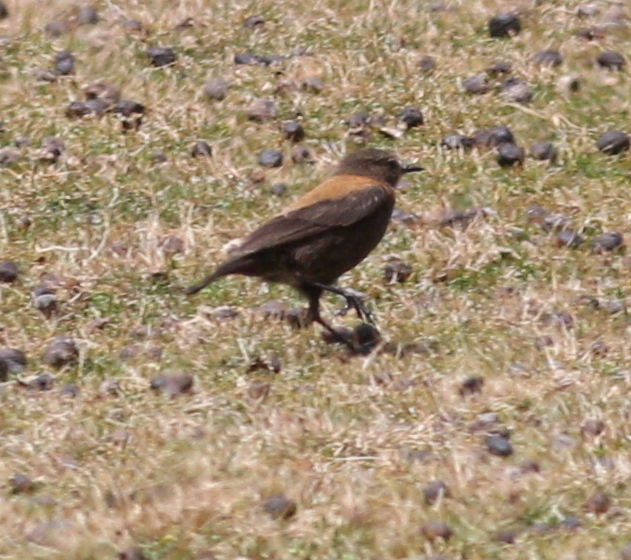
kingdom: Animalia
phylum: Chordata
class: Aves
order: Passeriformes
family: Tyrannidae
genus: Lessonia
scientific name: Lessonia oreas
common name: Andean negrito
